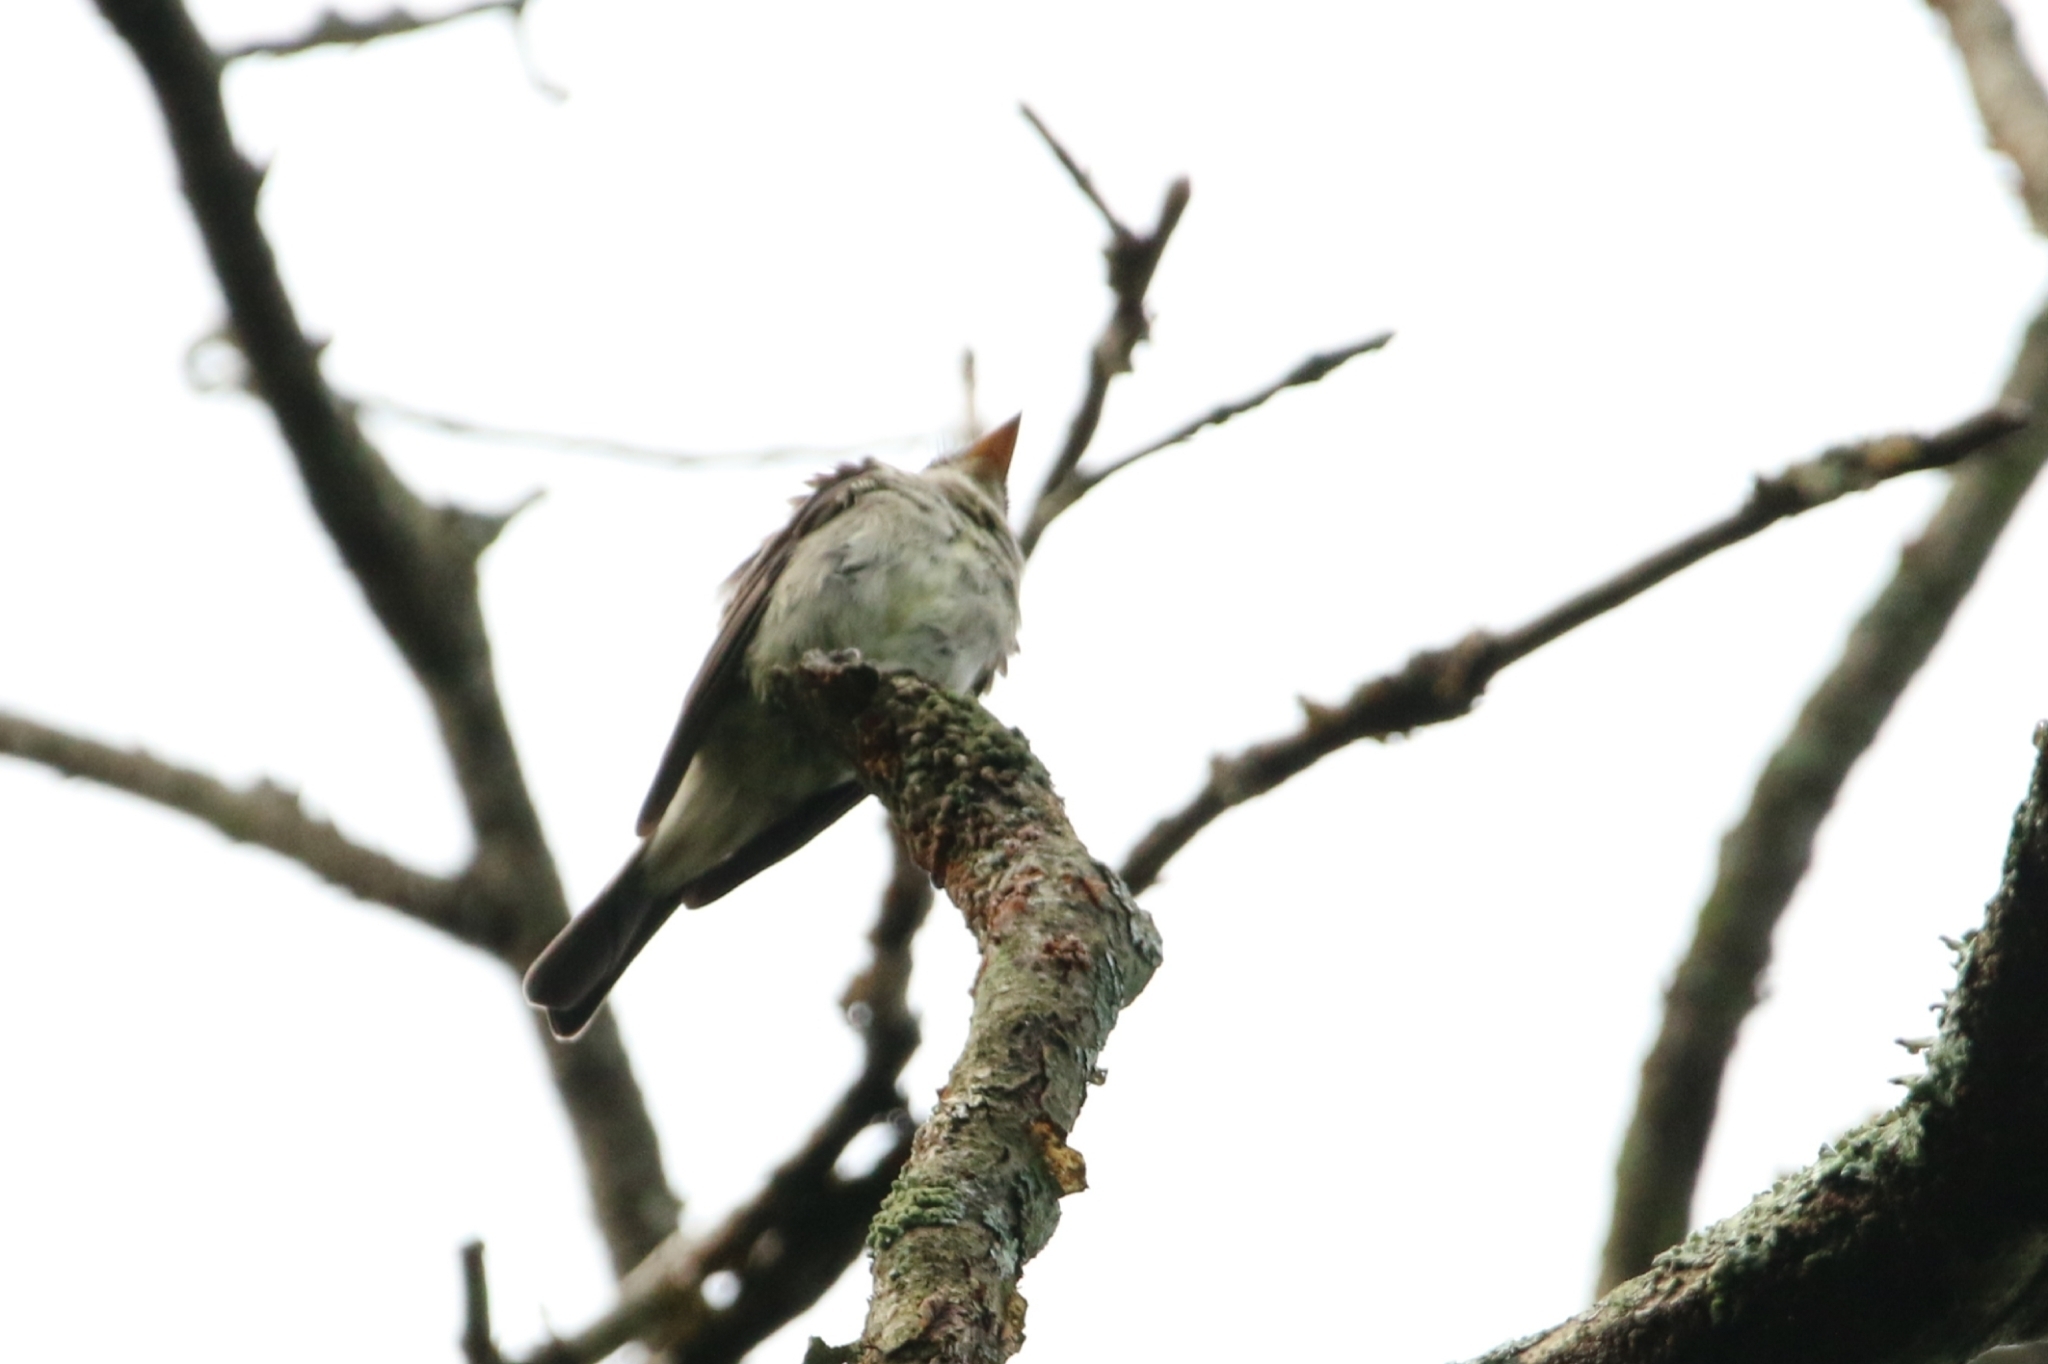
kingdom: Animalia
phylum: Chordata
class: Aves
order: Passeriformes
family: Tyrannidae
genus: Contopus
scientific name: Contopus virens
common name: Eastern wood-pewee
